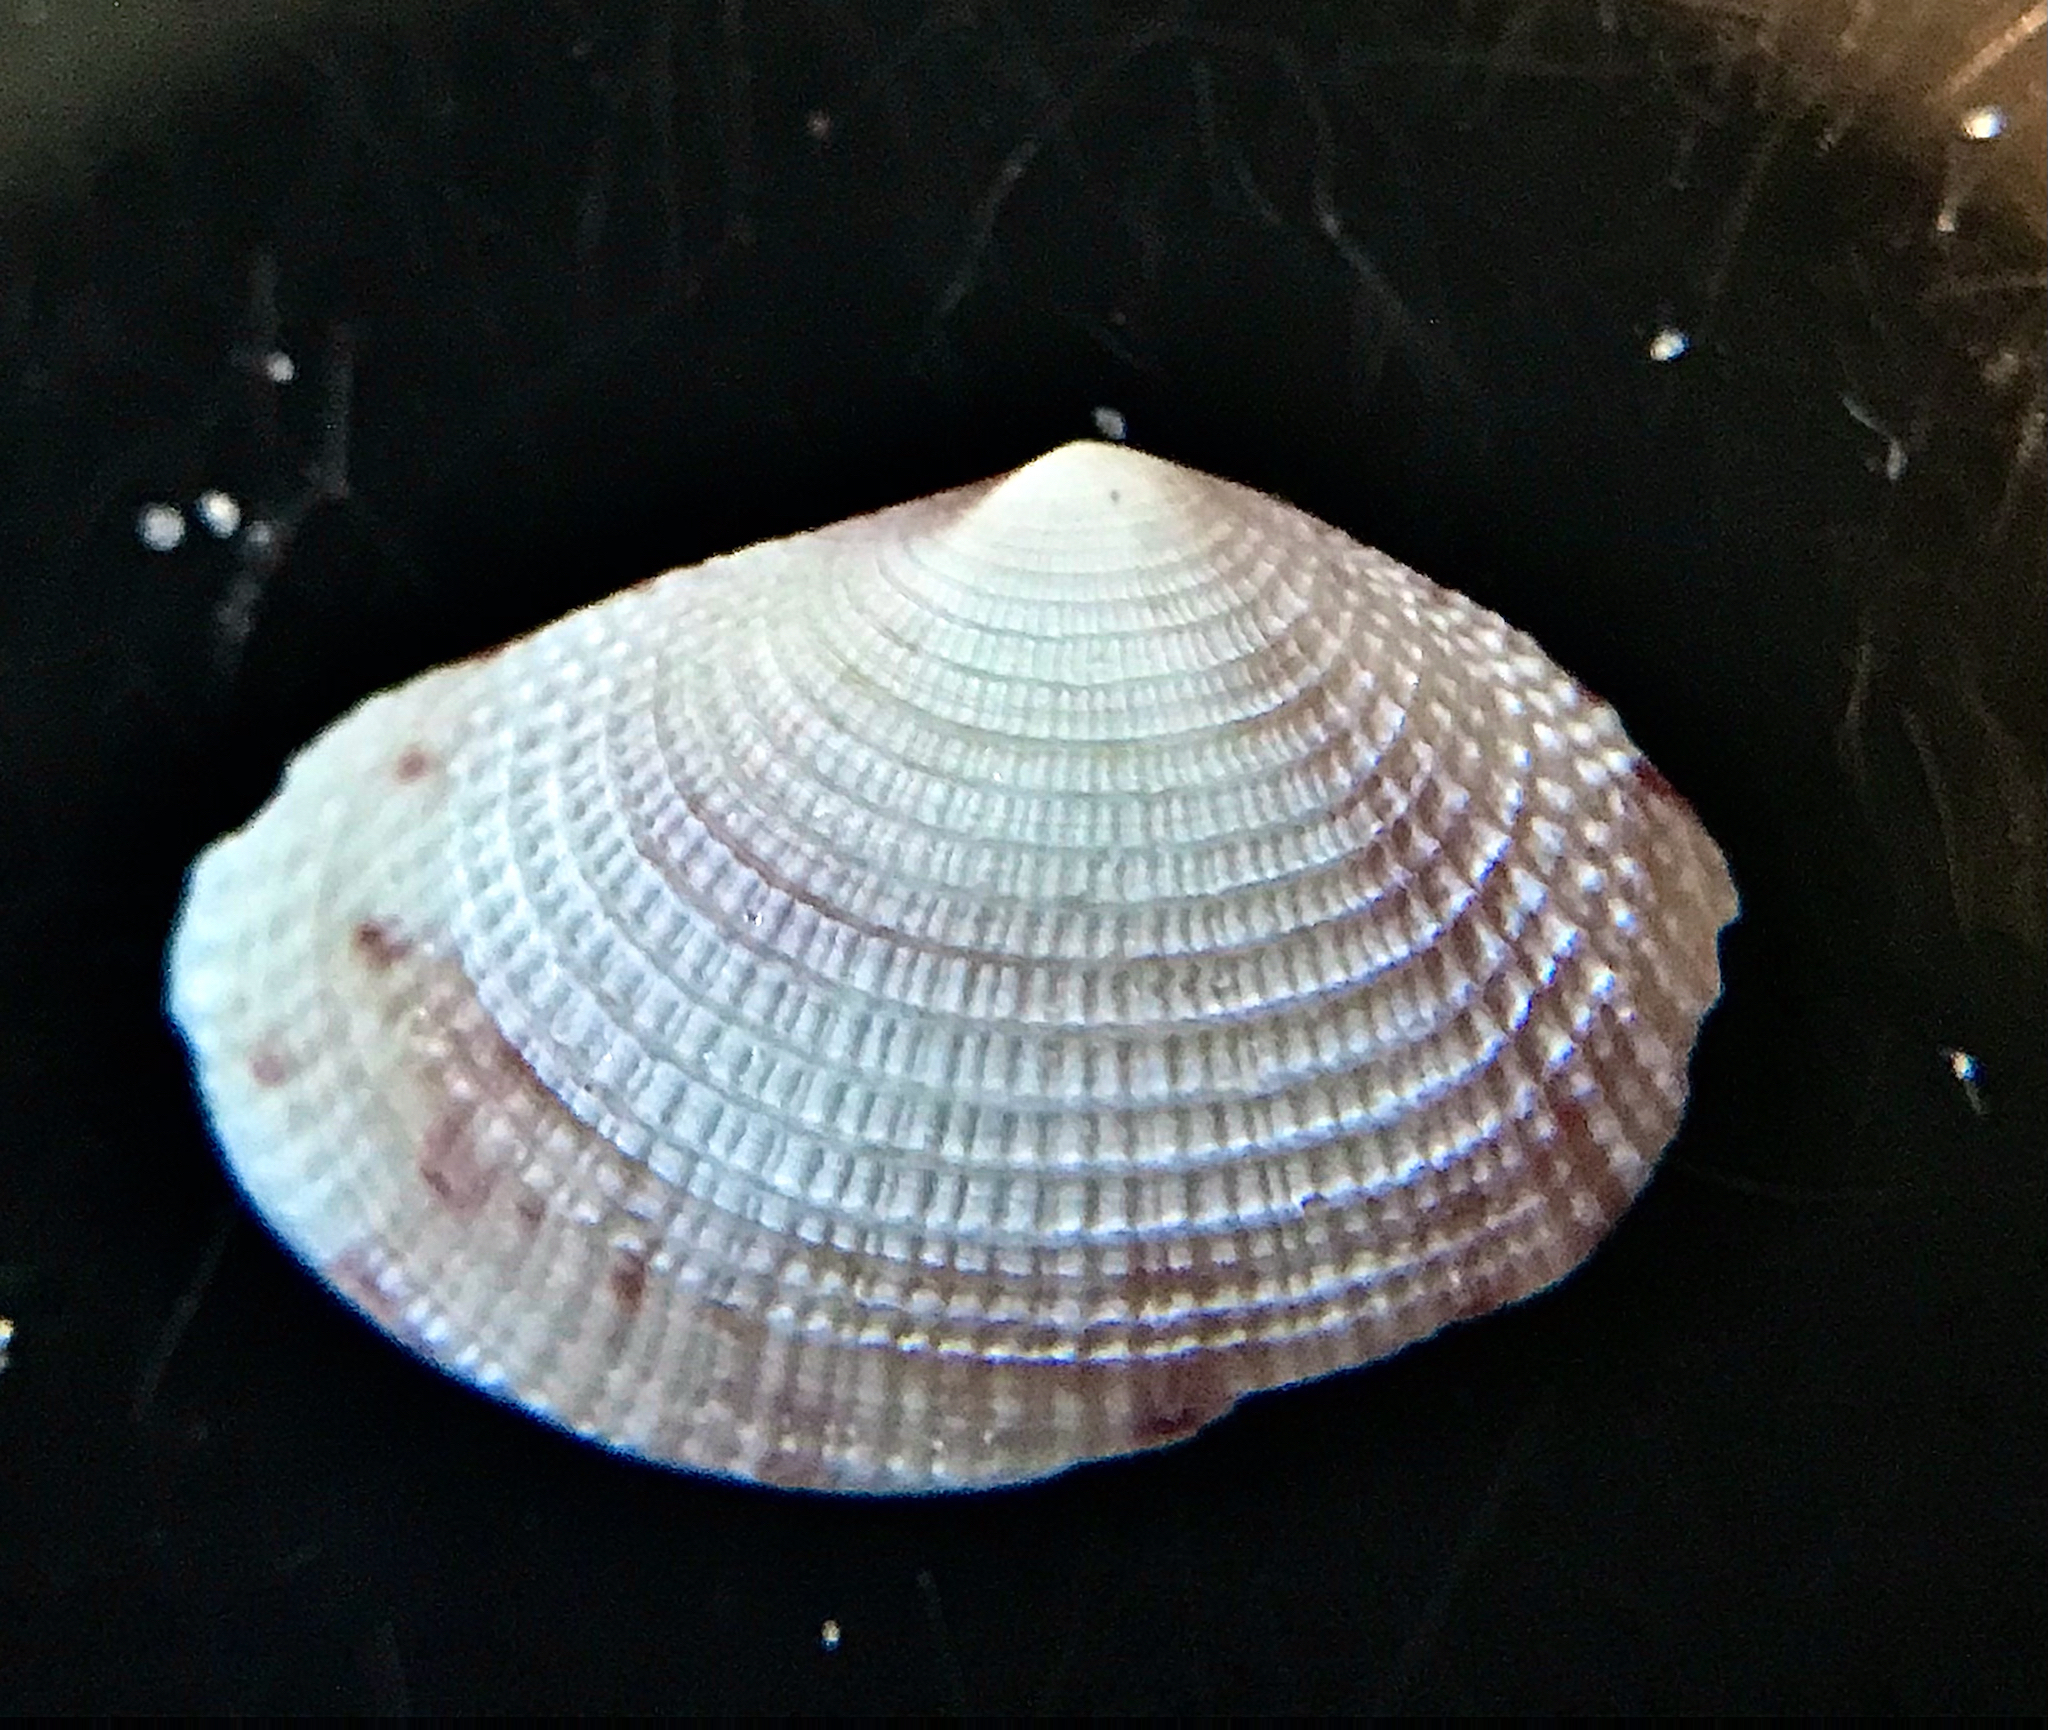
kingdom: Animalia
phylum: Mollusca
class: Bivalvia
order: Cardiida
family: Semelidae
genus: Semele
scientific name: Semele bellastriata
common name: Cancellate semele
